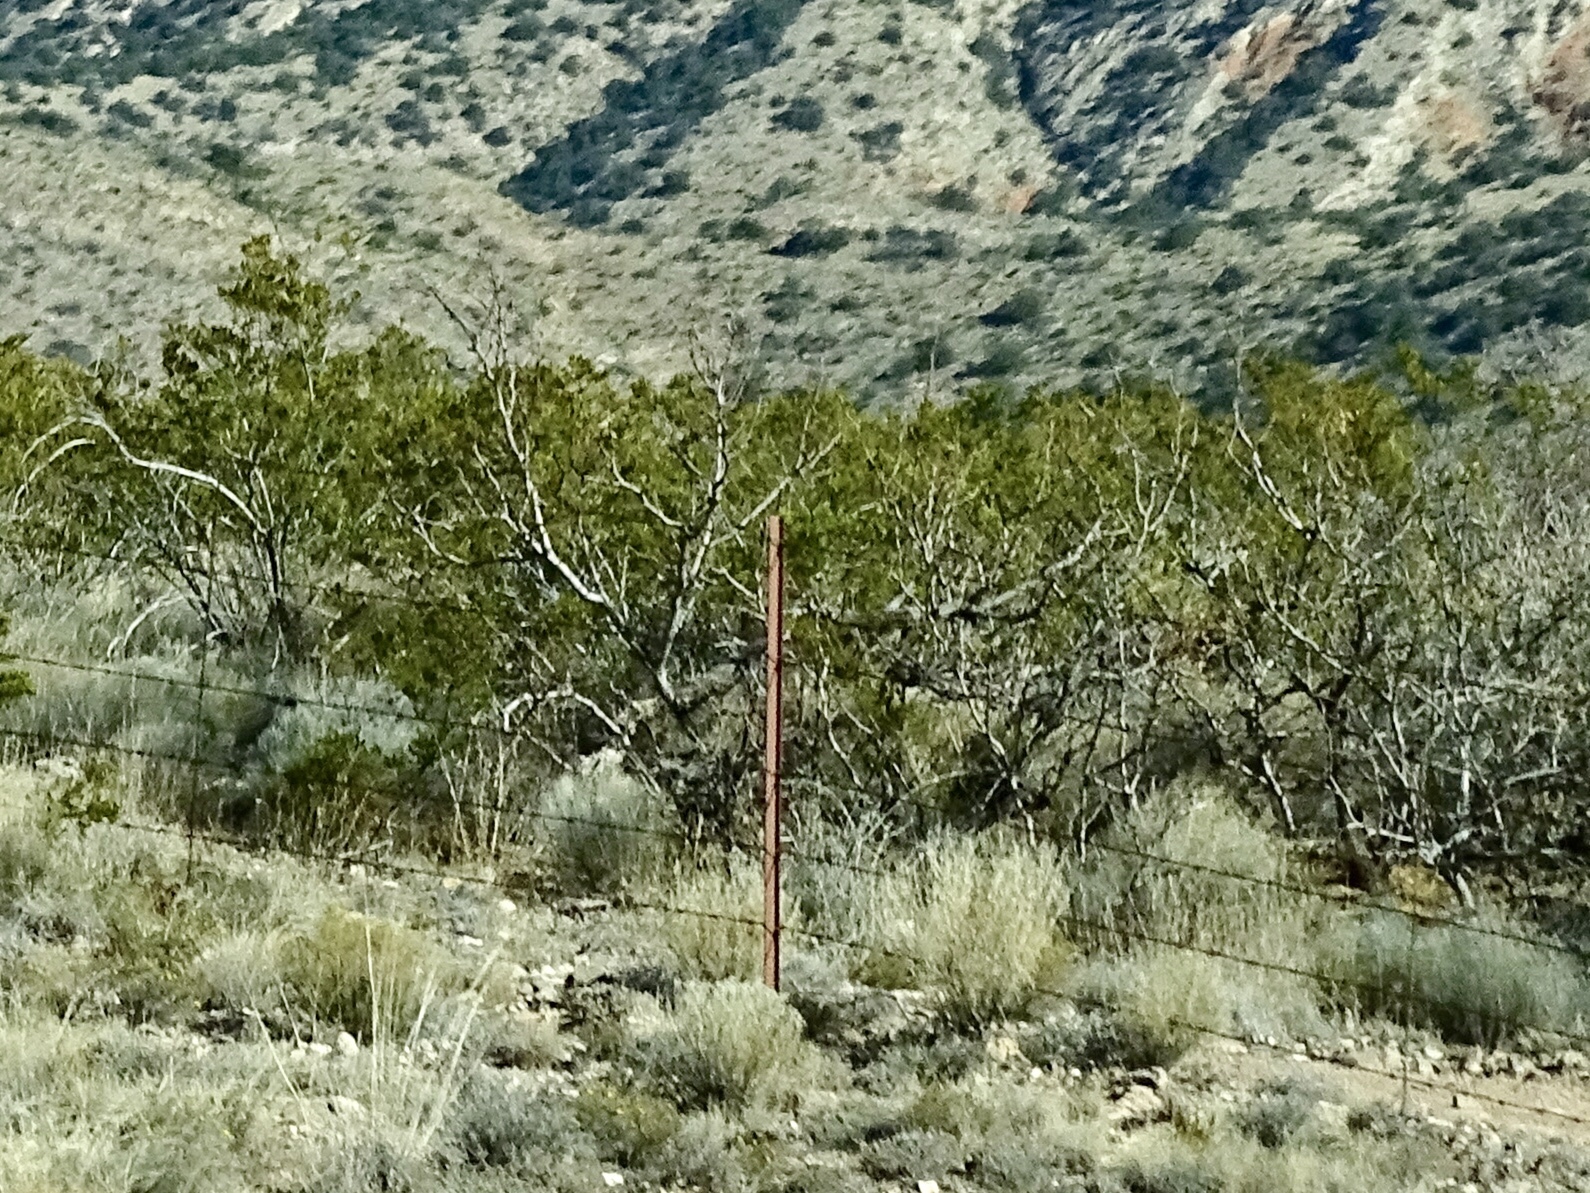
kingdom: Plantae
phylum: Tracheophyta
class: Magnoliopsida
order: Zygophyllales
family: Zygophyllaceae
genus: Larrea
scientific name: Larrea tridentata
